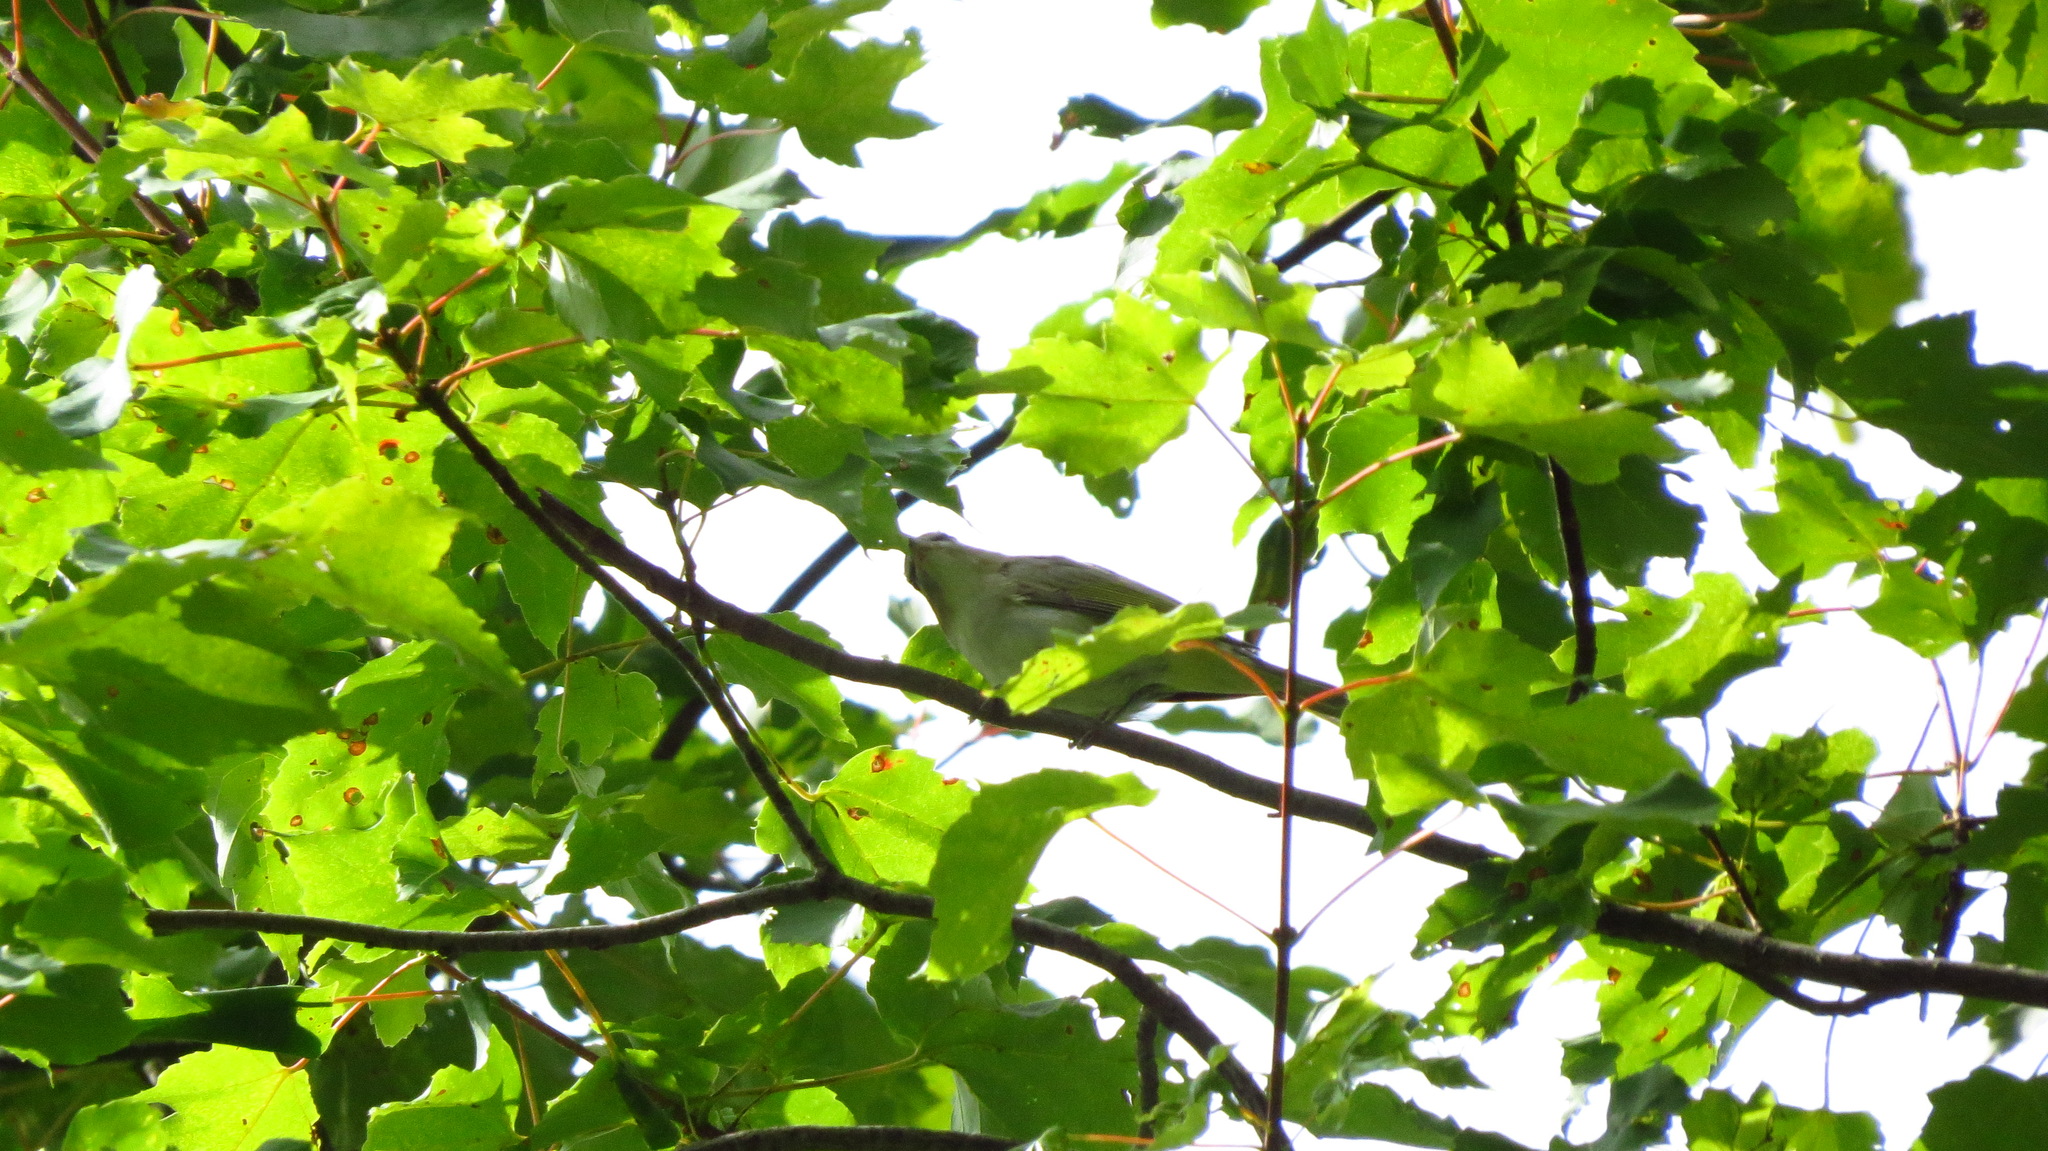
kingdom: Animalia
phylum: Chordata
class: Aves
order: Passeriformes
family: Vireonidae
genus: Vireo
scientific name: Vireo olivaceus
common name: Red-eyed vireo
